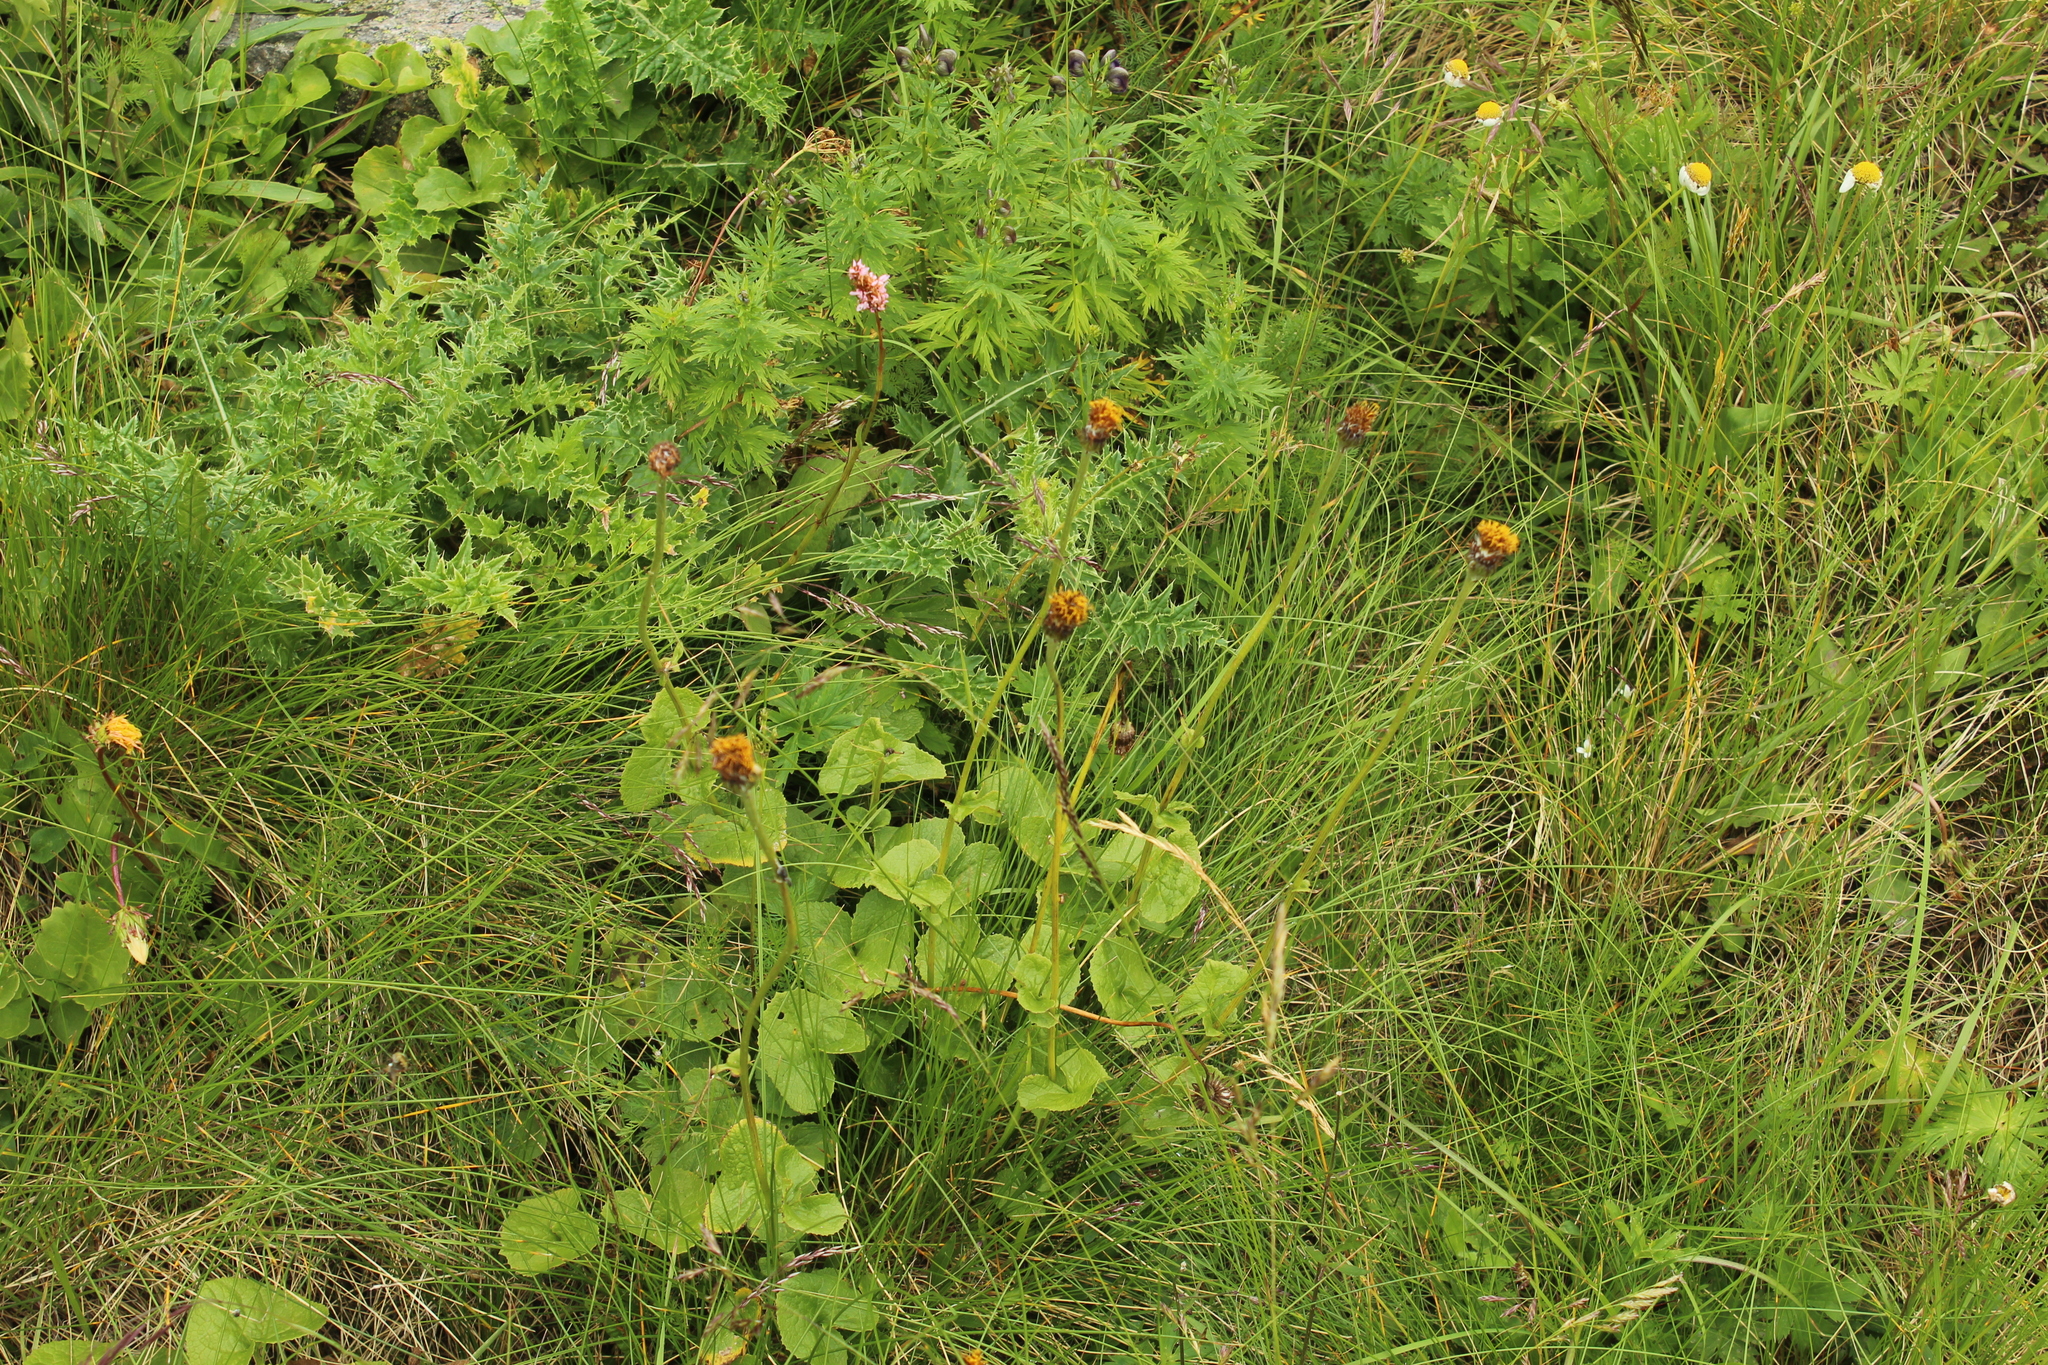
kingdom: Plantae
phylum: Tracheophyta
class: Magnoliopsida
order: Asterales
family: Asteraceae
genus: Dolichorrhiza
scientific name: Dolichorrhiza caucasica
